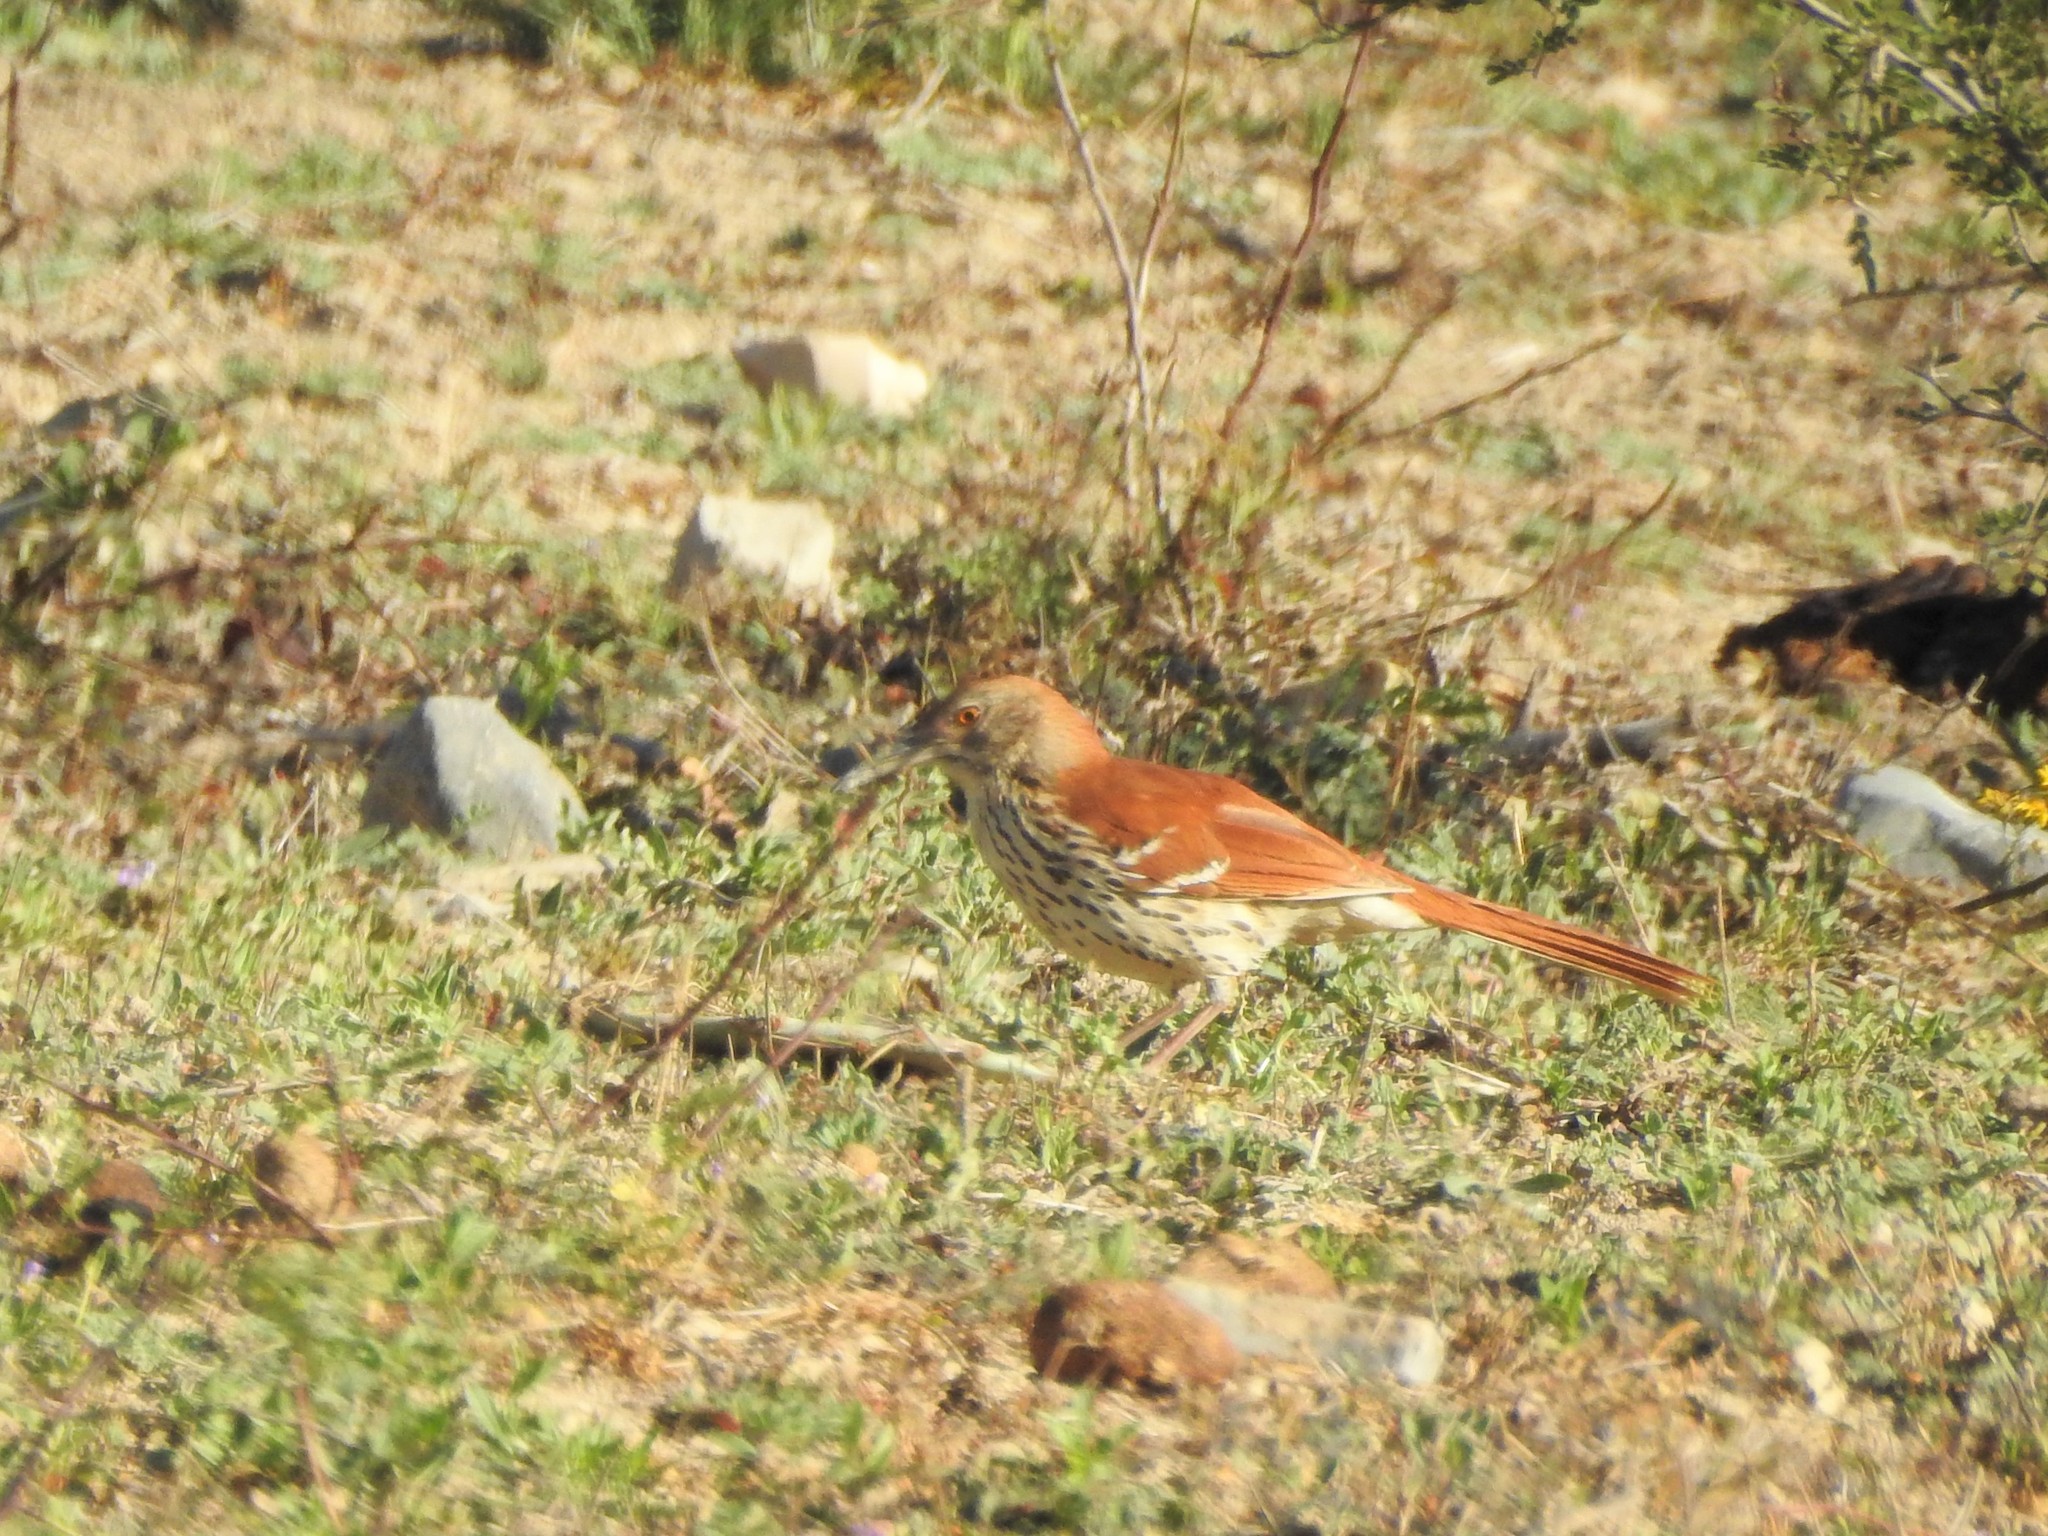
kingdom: Animalia
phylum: Chordata
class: Aves
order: Passeriformes
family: Mimidae
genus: Toxostoma
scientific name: Toxostoma longirostre
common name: Long-billed thrasher
